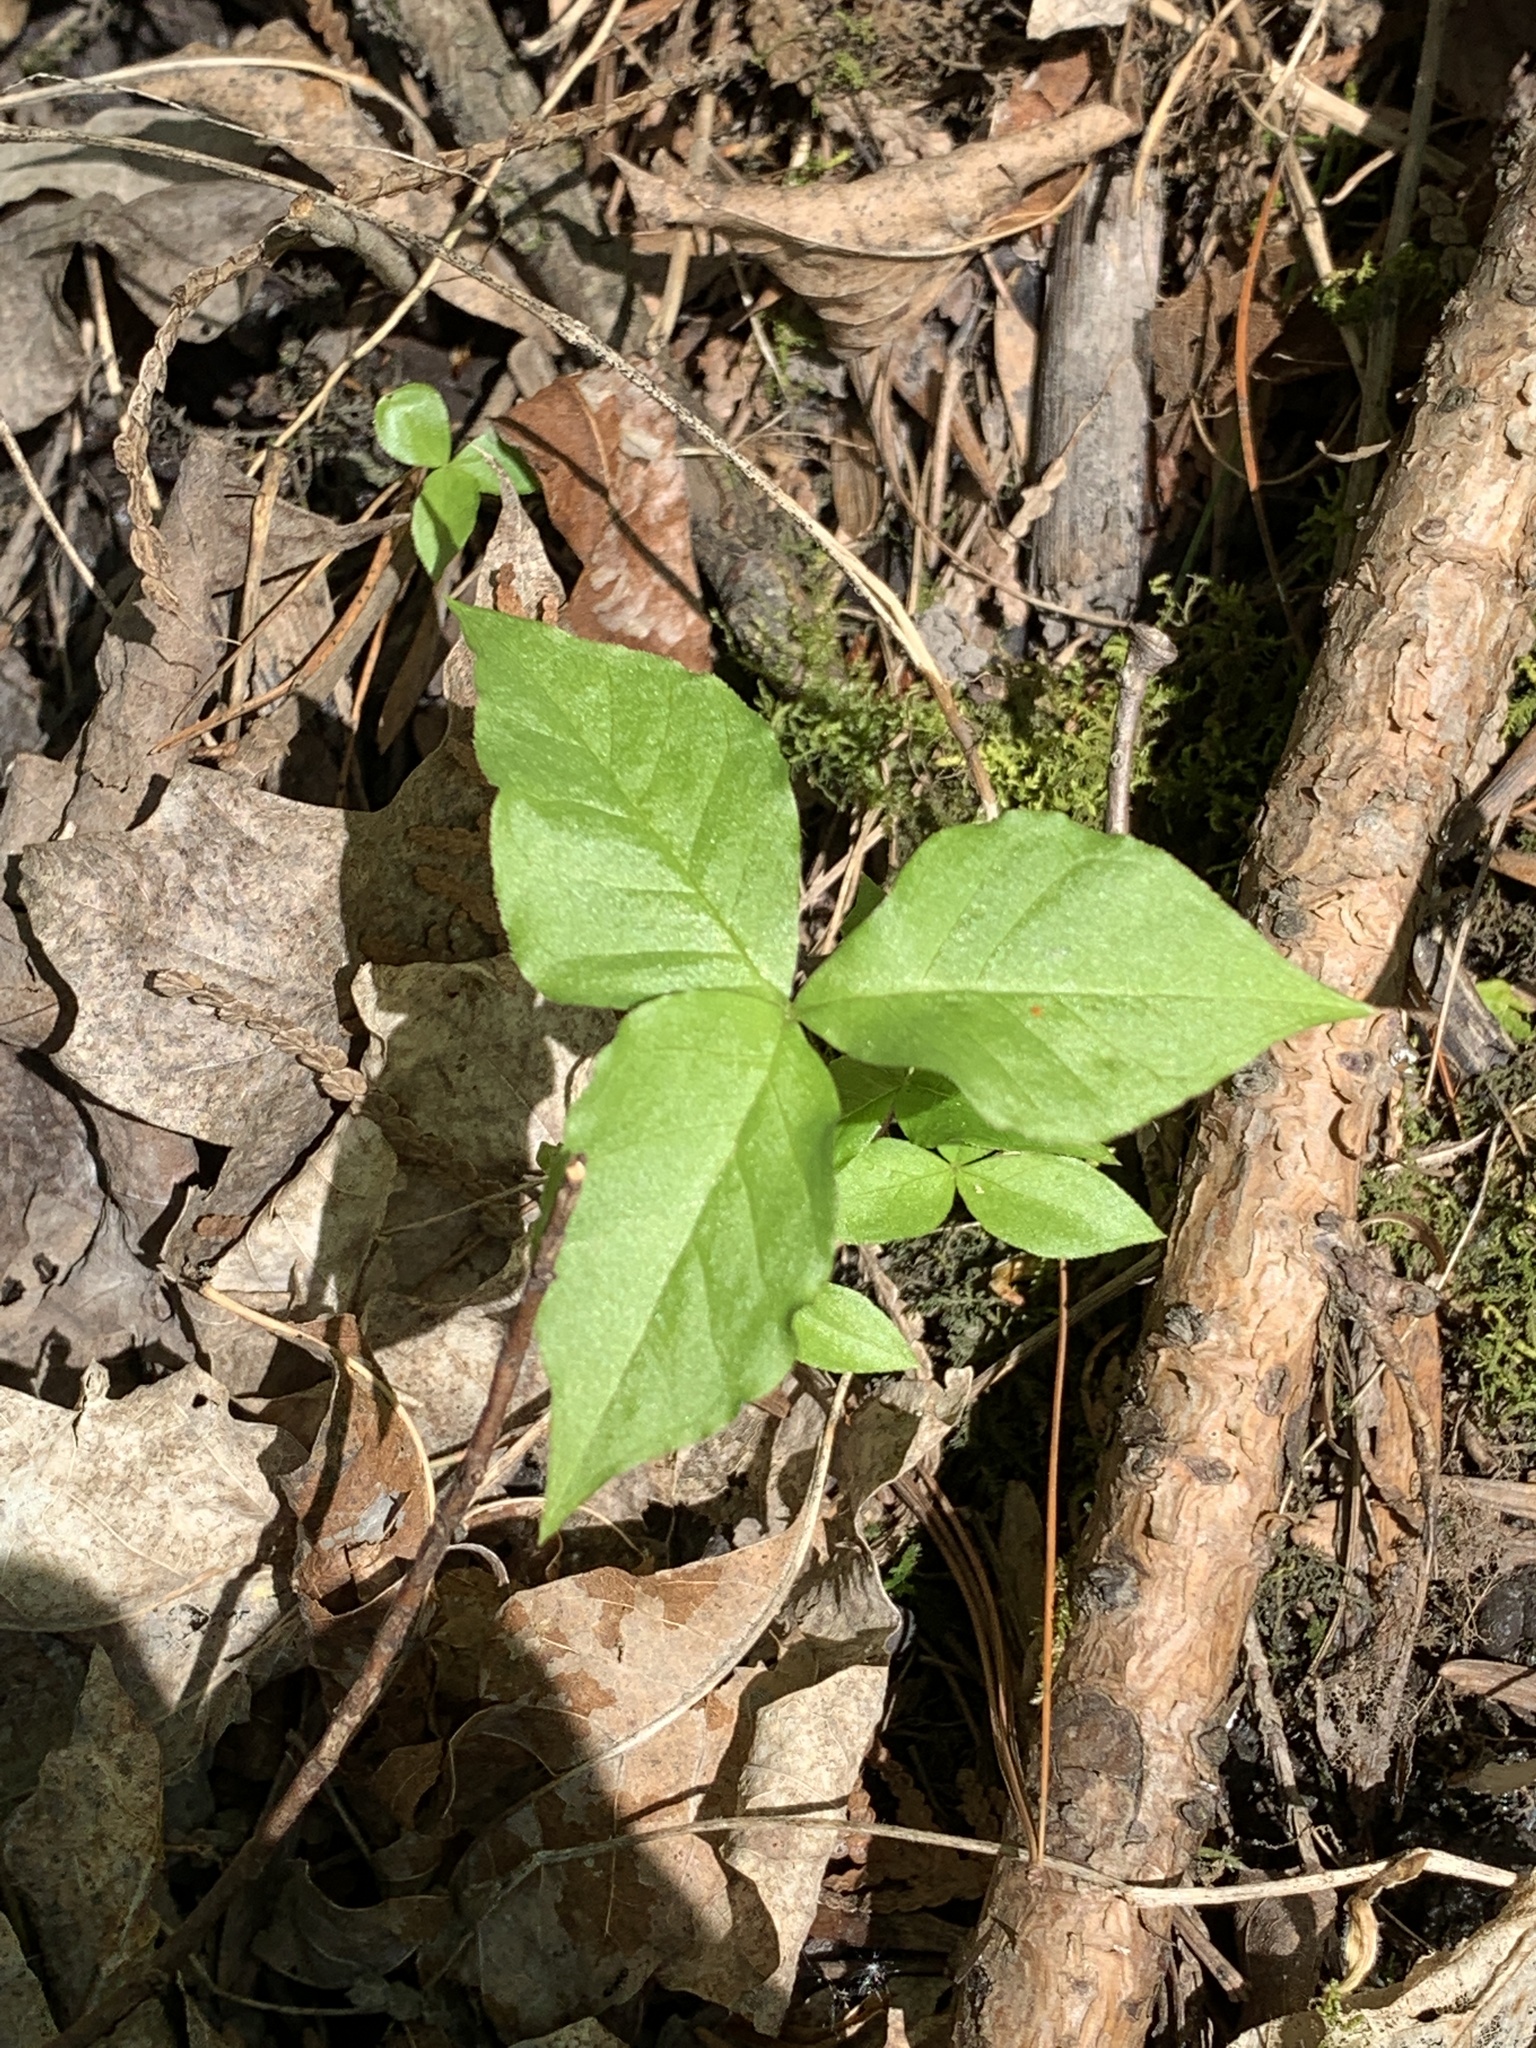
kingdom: Plantae
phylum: Tracheophyta
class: Liliopsida
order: Alismatales
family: Araceae
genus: Arisaema
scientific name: Arisaema triphyllum
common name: Jack-in-the-pulpit
